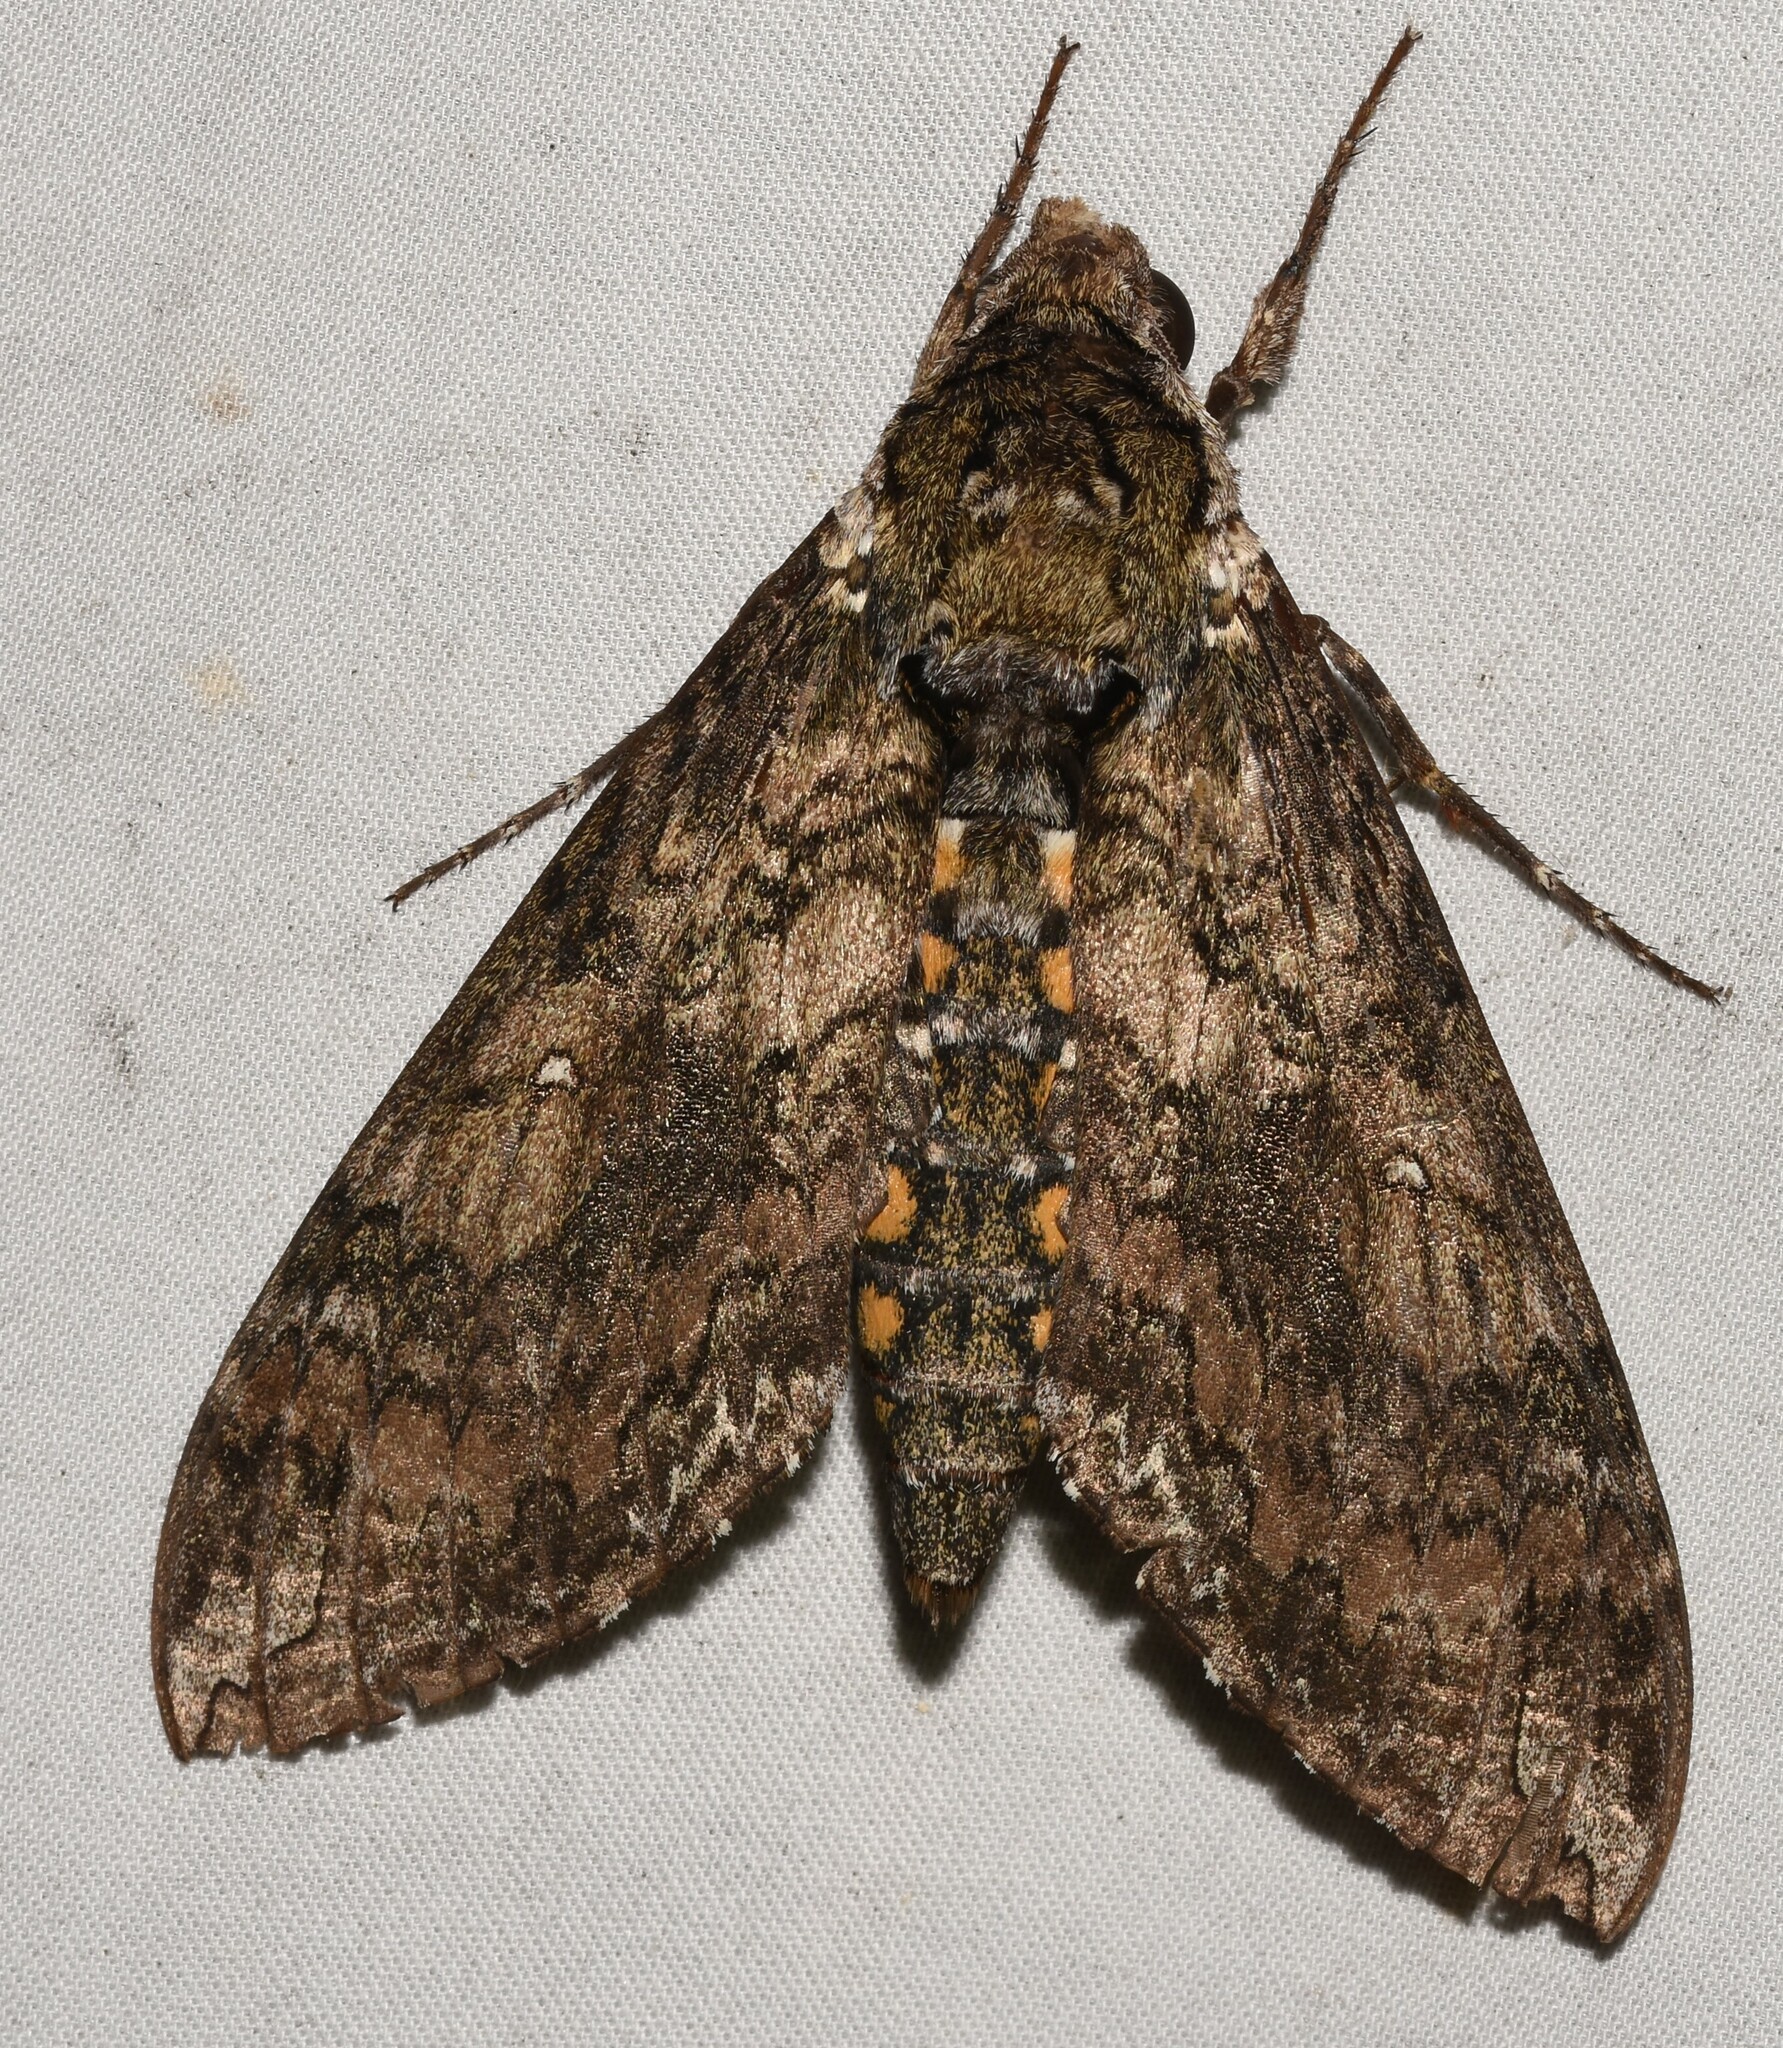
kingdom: Animalia
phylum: Arthropoda
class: Insecta
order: Lepidoptera
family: Sphingidae
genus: Manduca
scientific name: Manduca sexta
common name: Carolina sphinx
